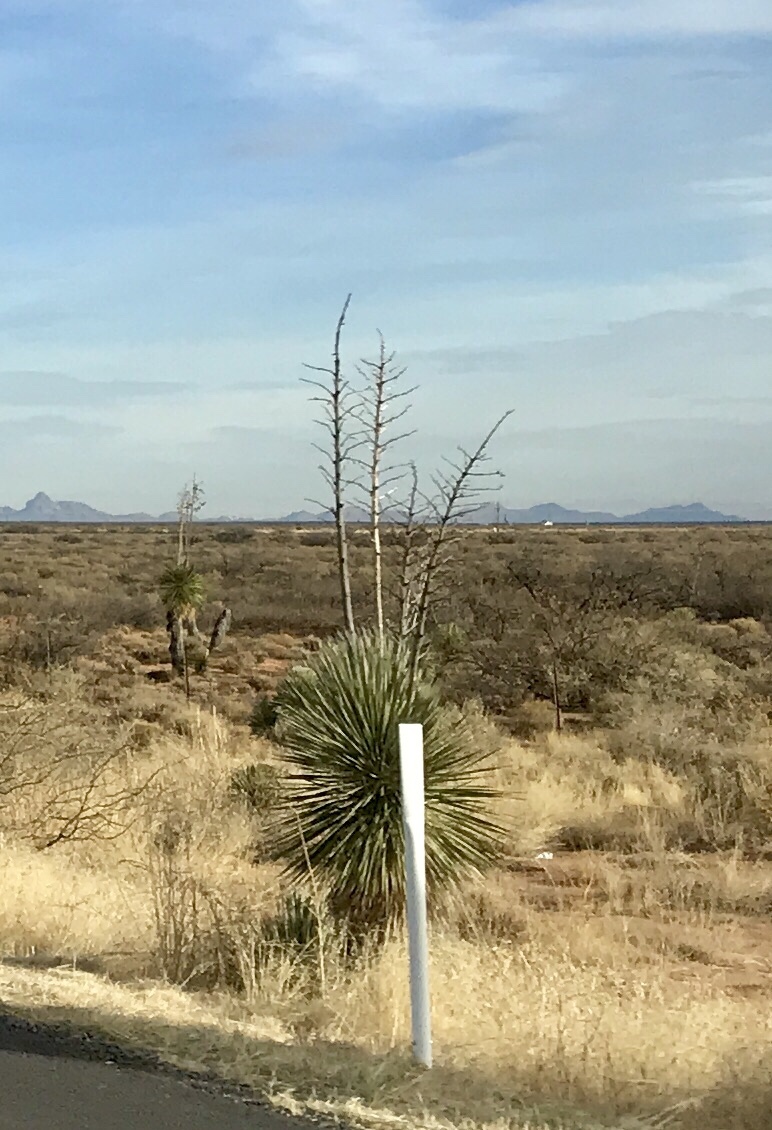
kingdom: Plantae
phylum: Tracheophyta
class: Liliopsida
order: Asparagales
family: Asparagaceae
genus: Yucca
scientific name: Yucca elata
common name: Palmella
